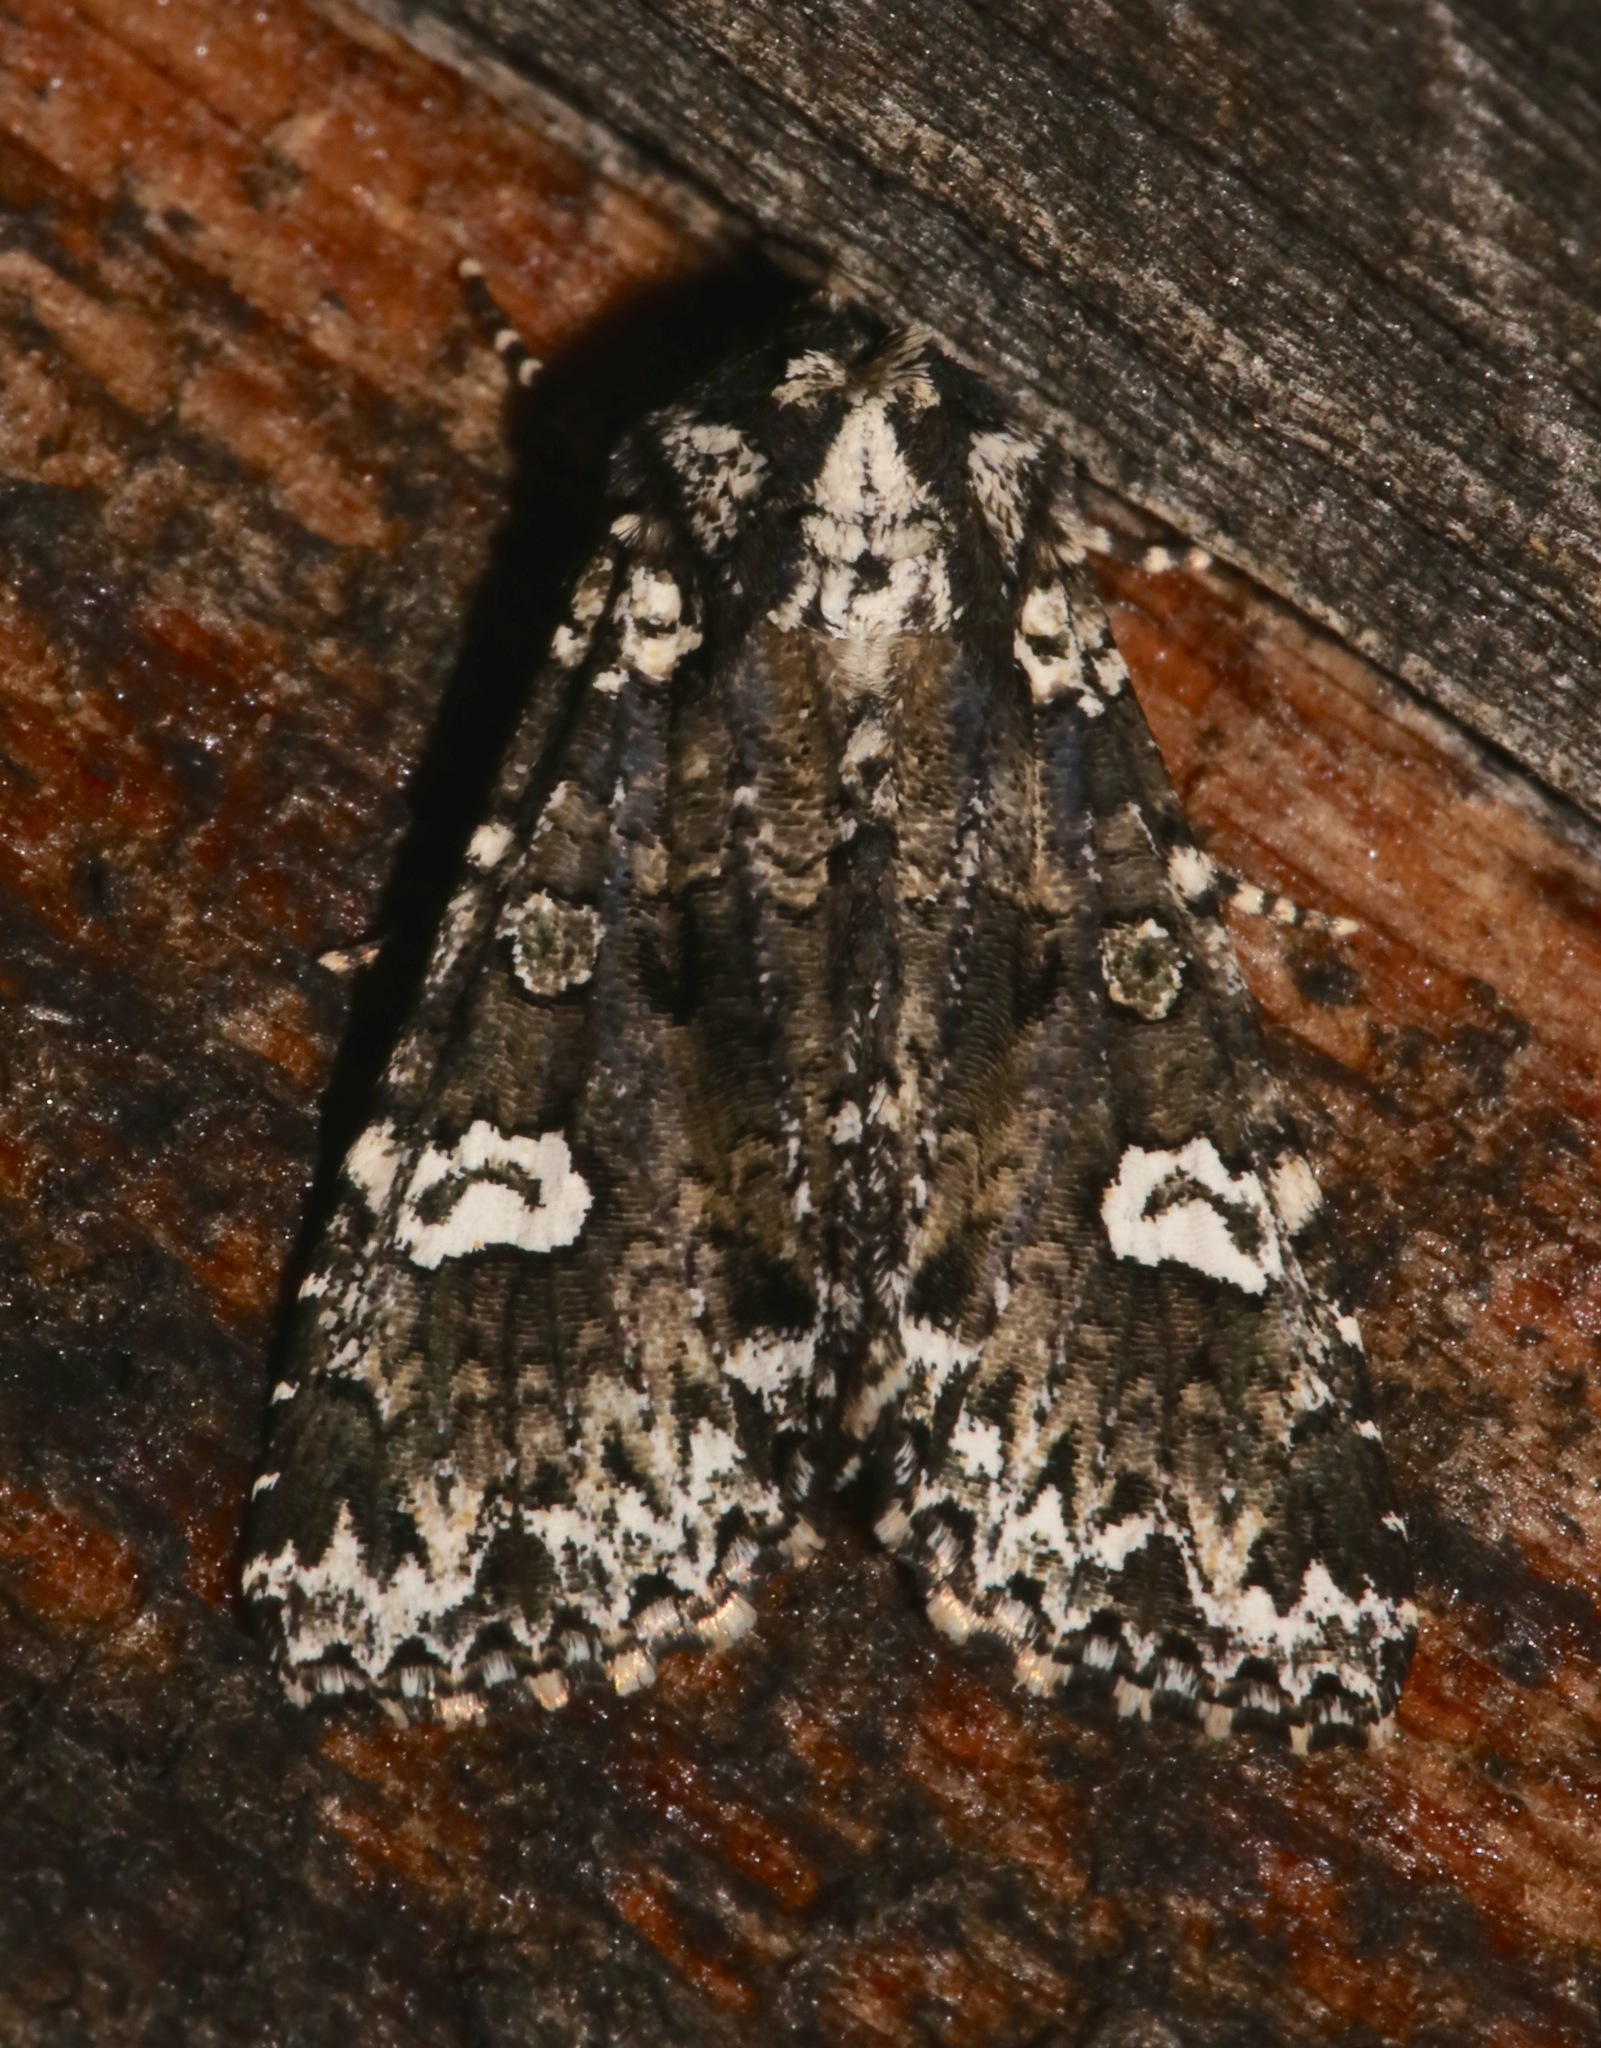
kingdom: Animalia
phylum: Arthropoda
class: Insecta
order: Lepidoptera
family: Noctuidae
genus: Melanchra
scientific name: Melanchra adjuncta
